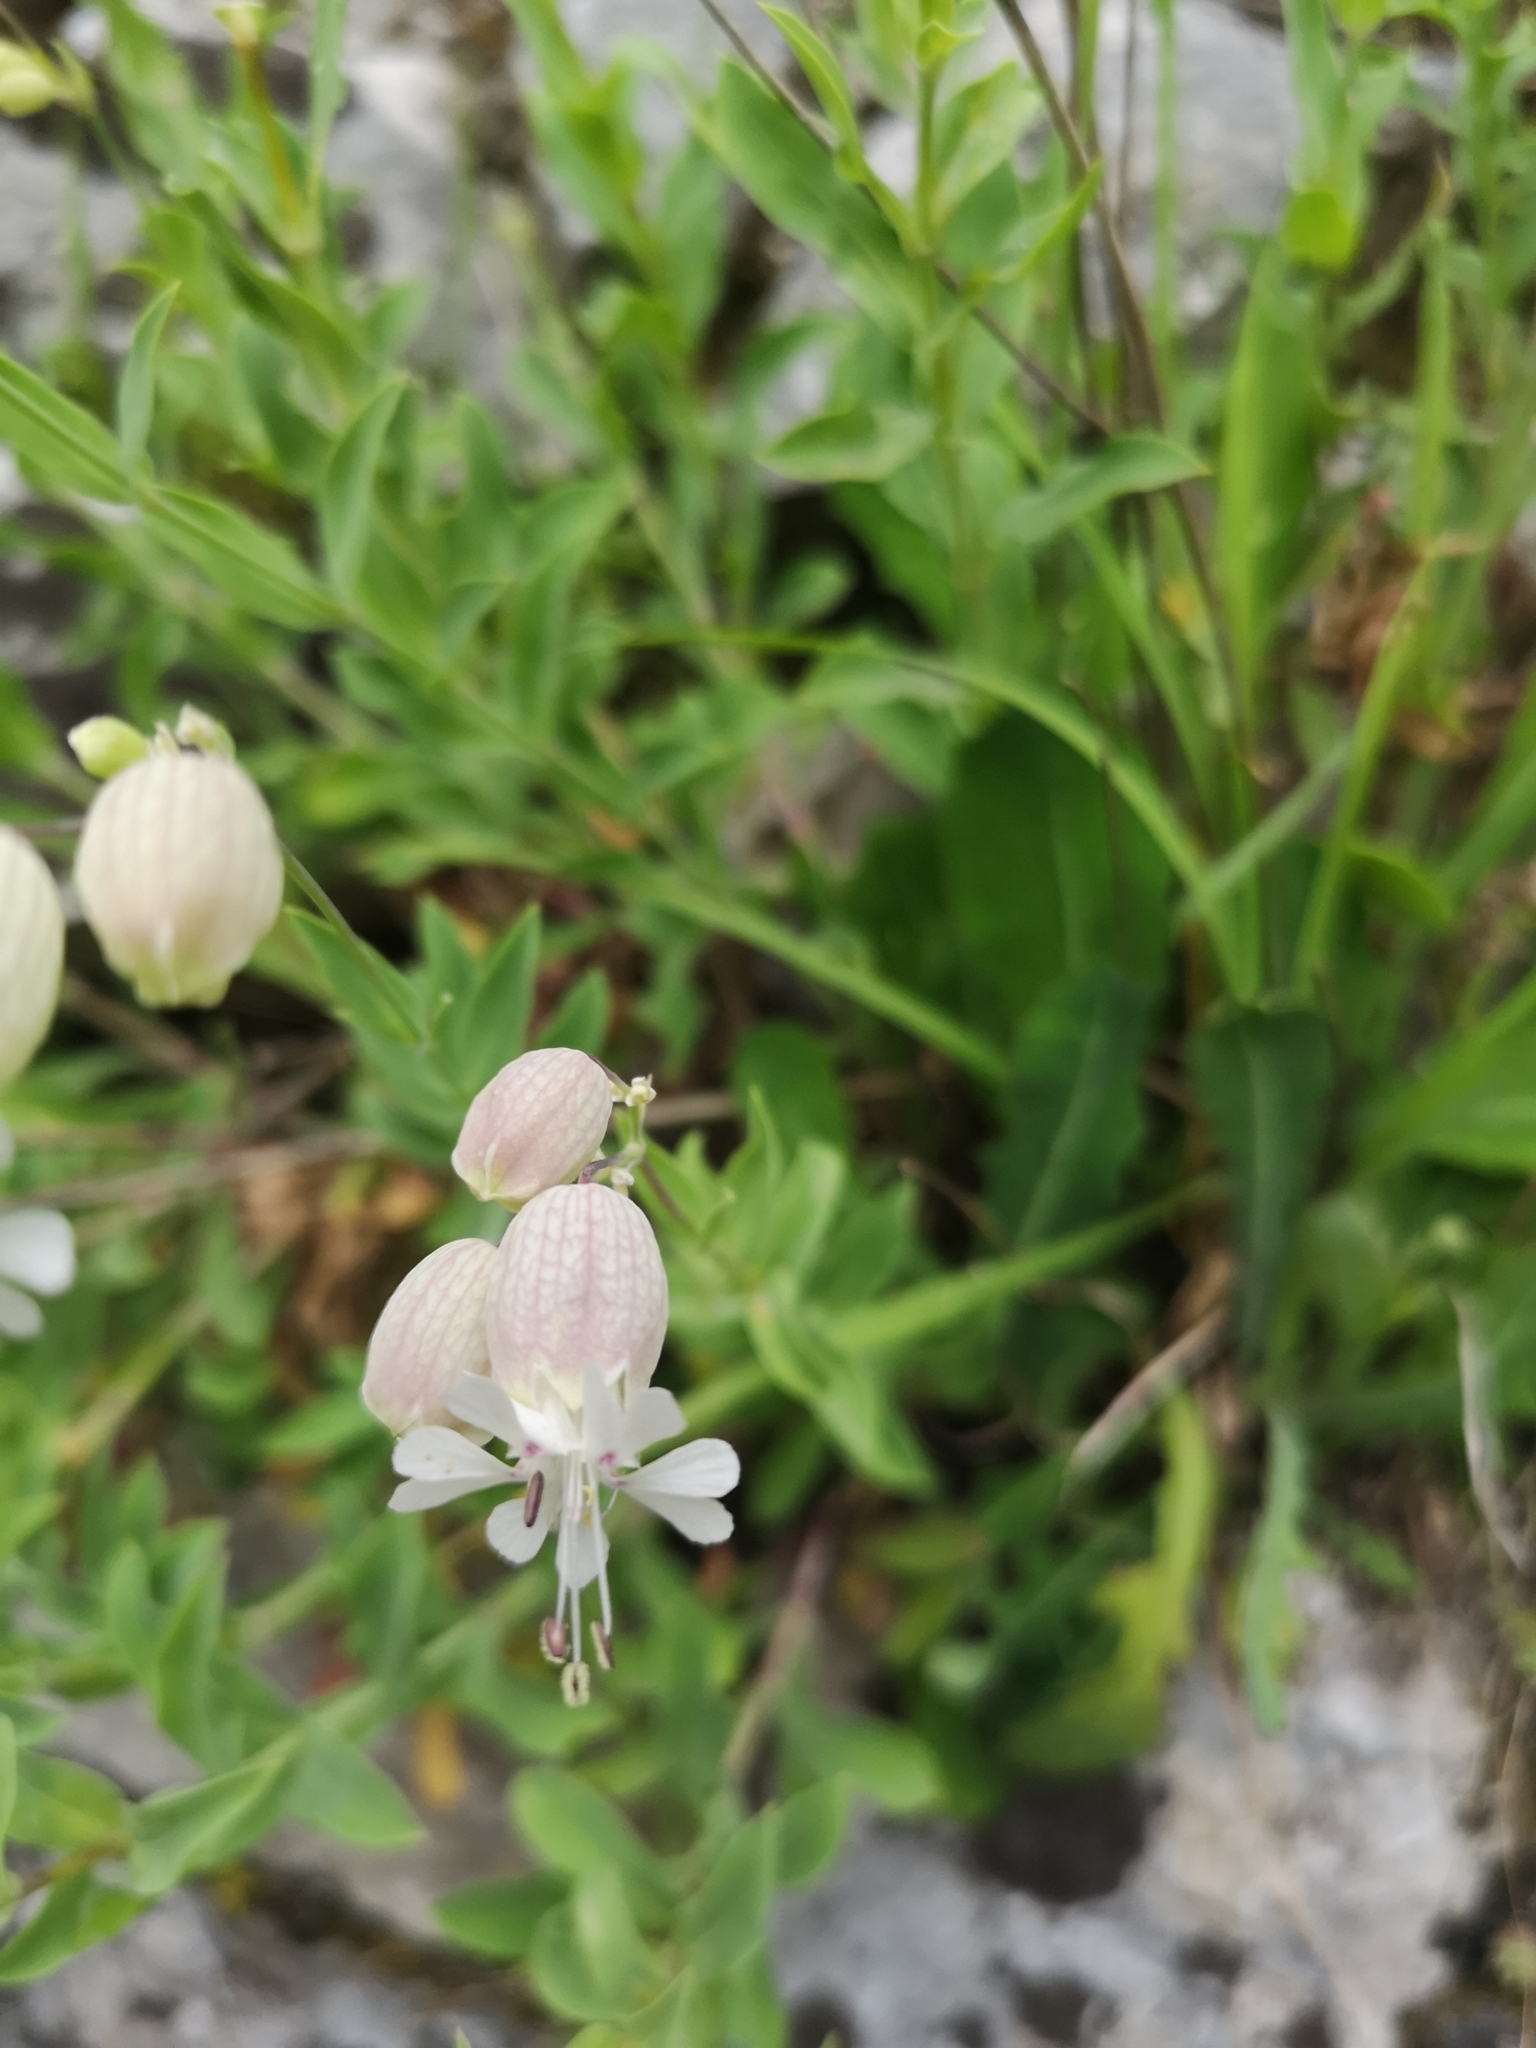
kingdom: Plantae
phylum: Tracheophyta
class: Magnoliopsida
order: Caryophyllales
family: Caryophyllaceae
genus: Silene
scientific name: Silene vulgaris
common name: Bladder campion
